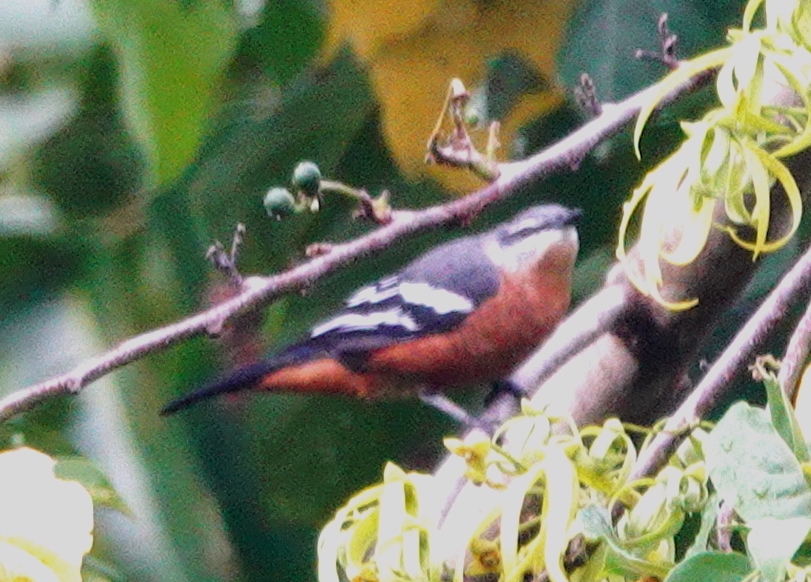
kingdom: Animalia
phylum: Chordata
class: Aves
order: Passeriformes
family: Campephagidae
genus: Lalage
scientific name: Lalage aurea
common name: Rufous-bellied triller
